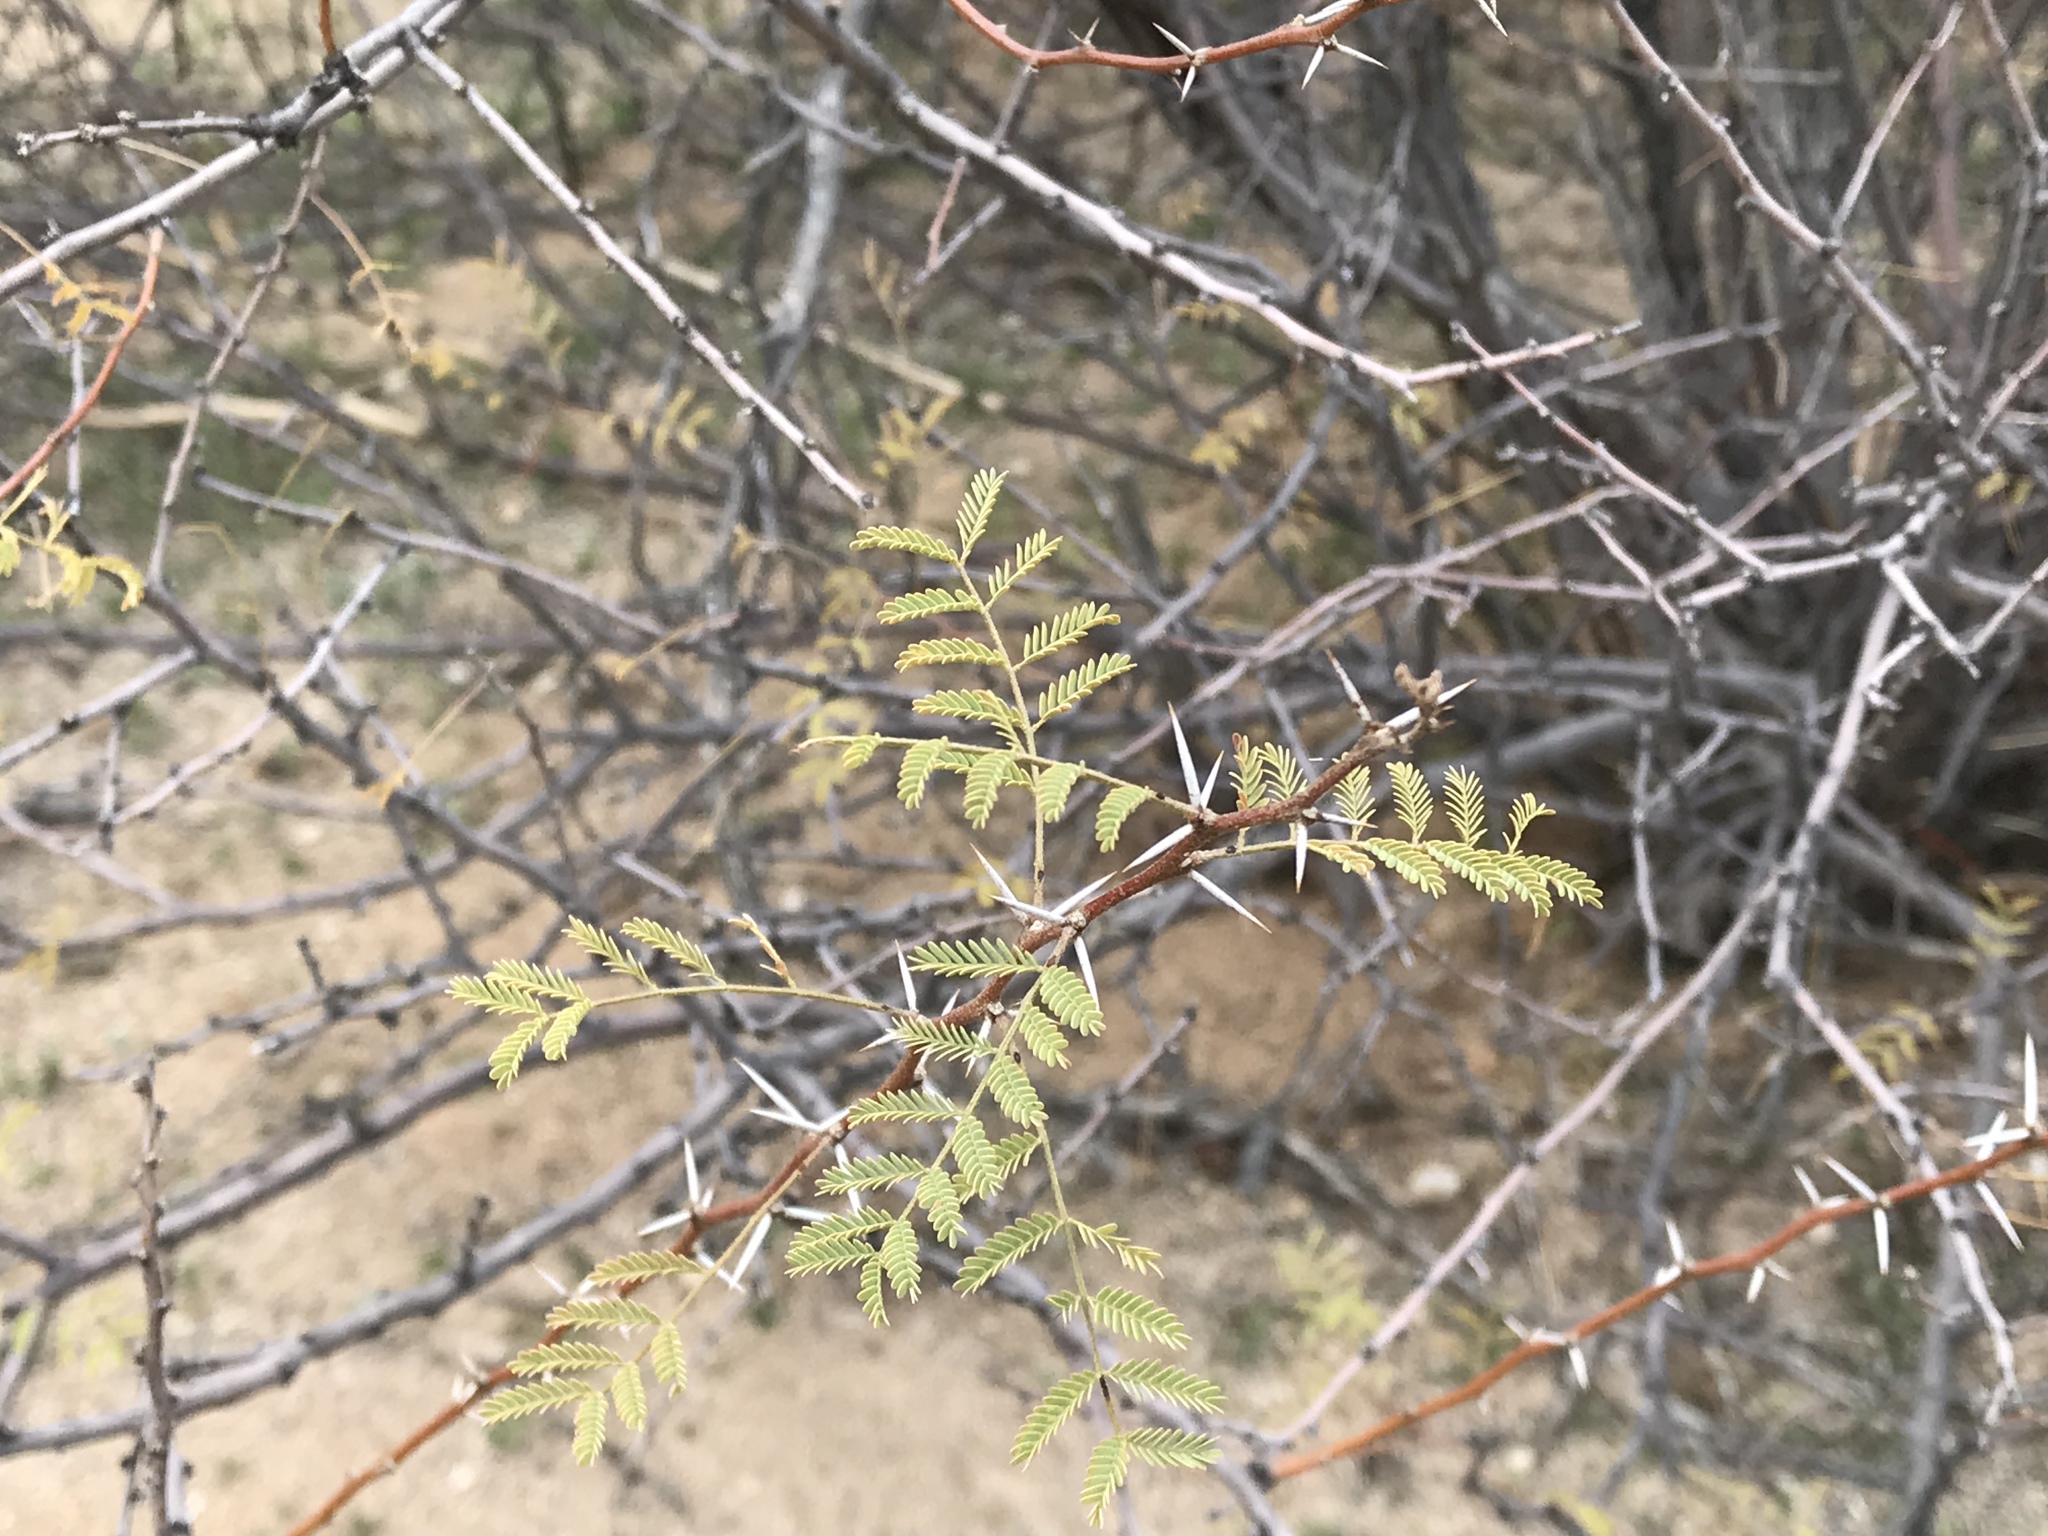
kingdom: Plantae
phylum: Tracheophyta
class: Magnoliopsida
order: Fabales
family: Fabaceae
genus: Vachellia
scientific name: Vachellia constricta
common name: Mescat acacia
